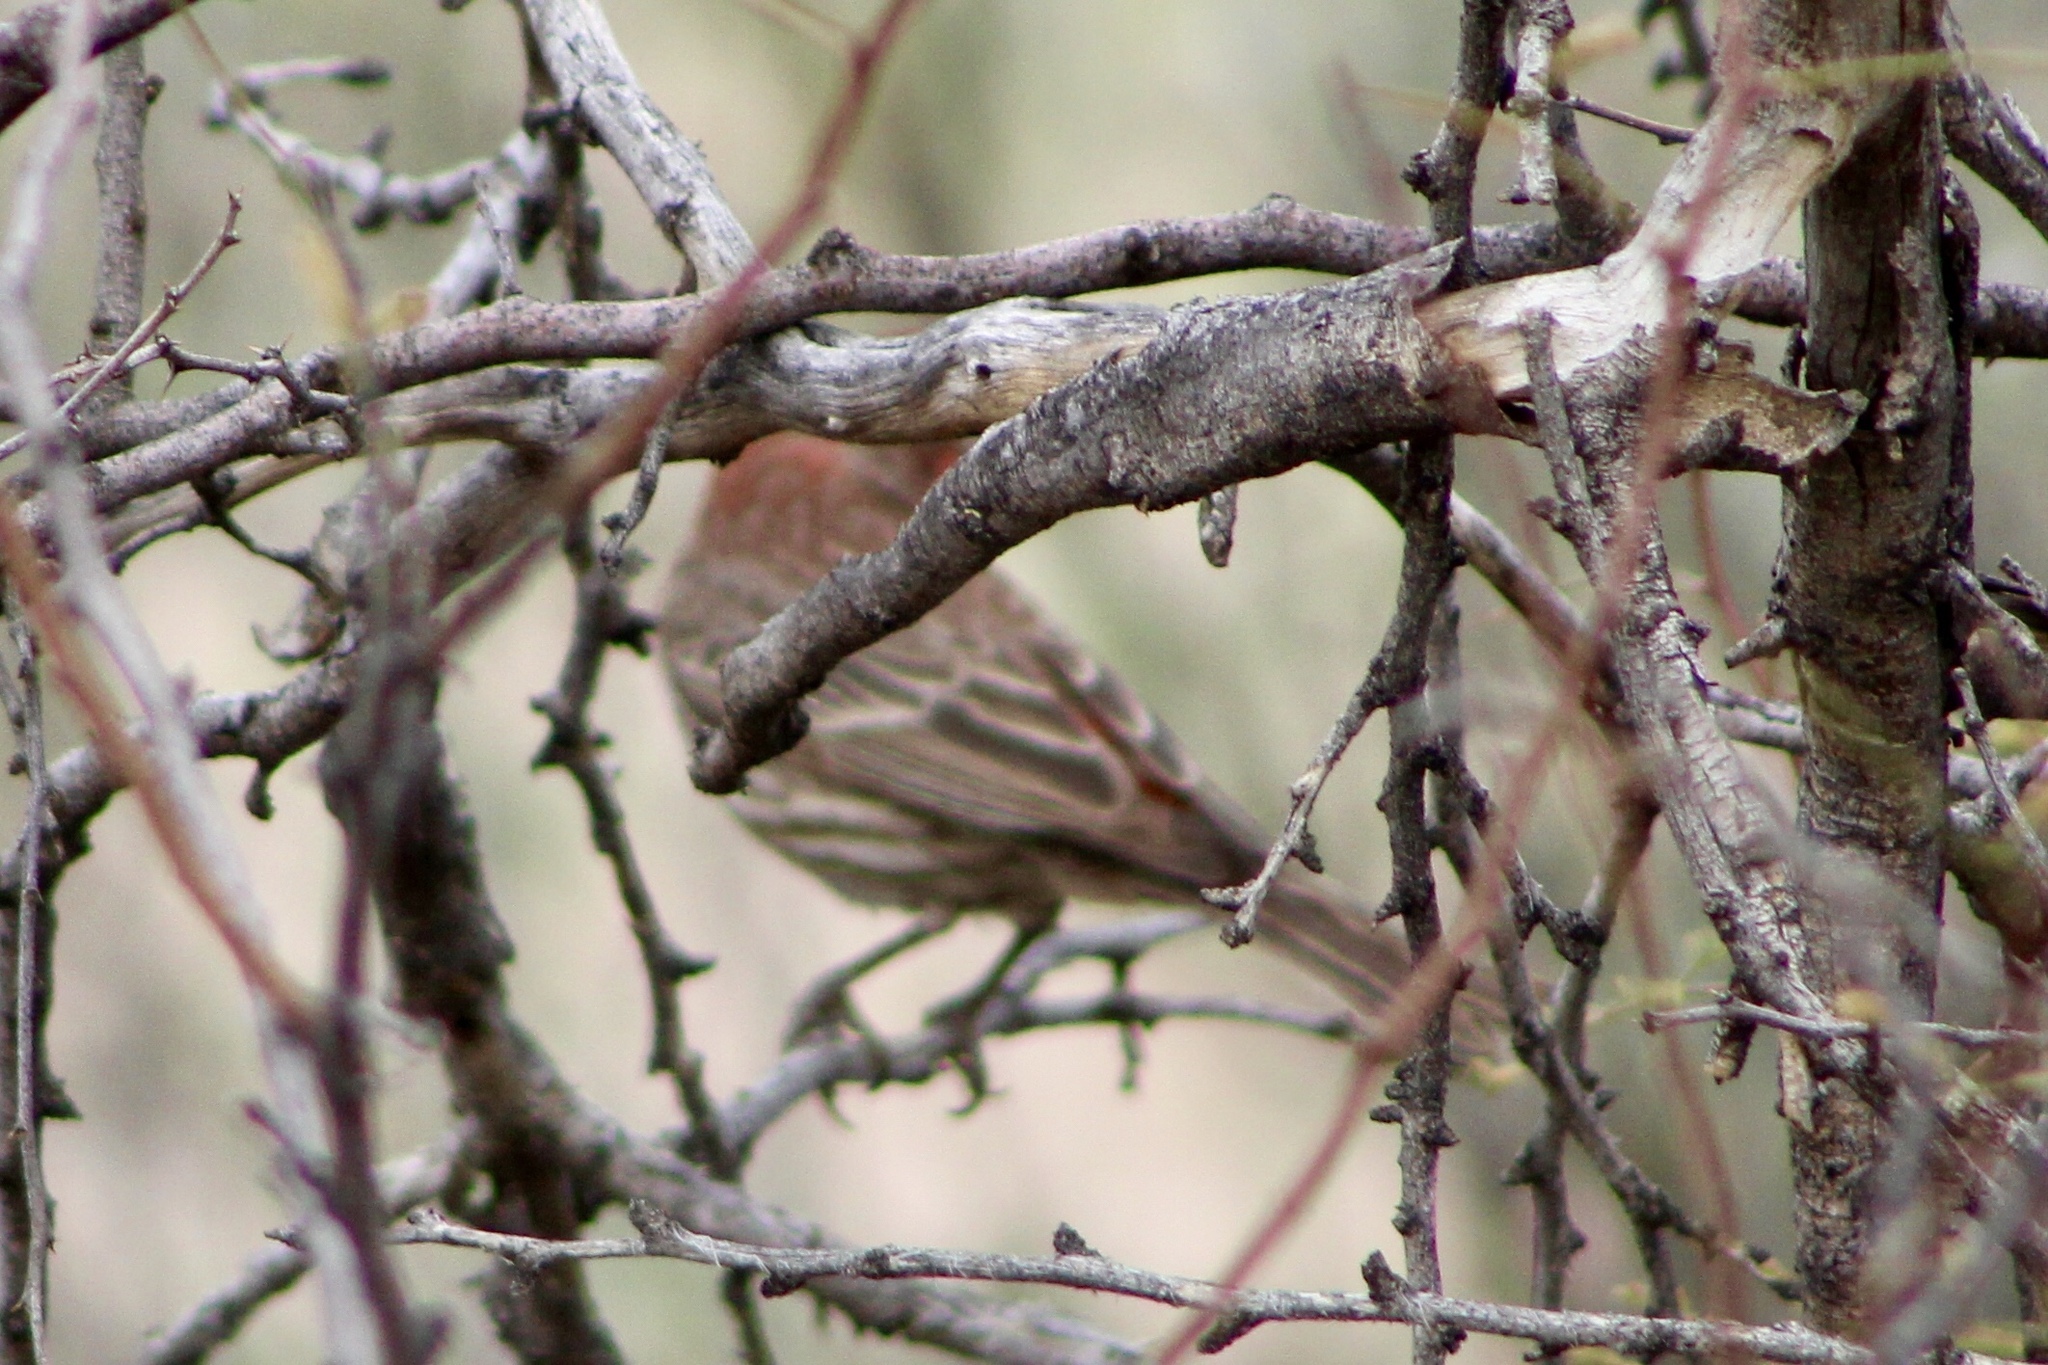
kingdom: Animalia
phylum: Chordata
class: Aves
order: Passeriformes
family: Fringillidae
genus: Haemorhous
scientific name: Haemorhous mexicanus
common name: House finch
